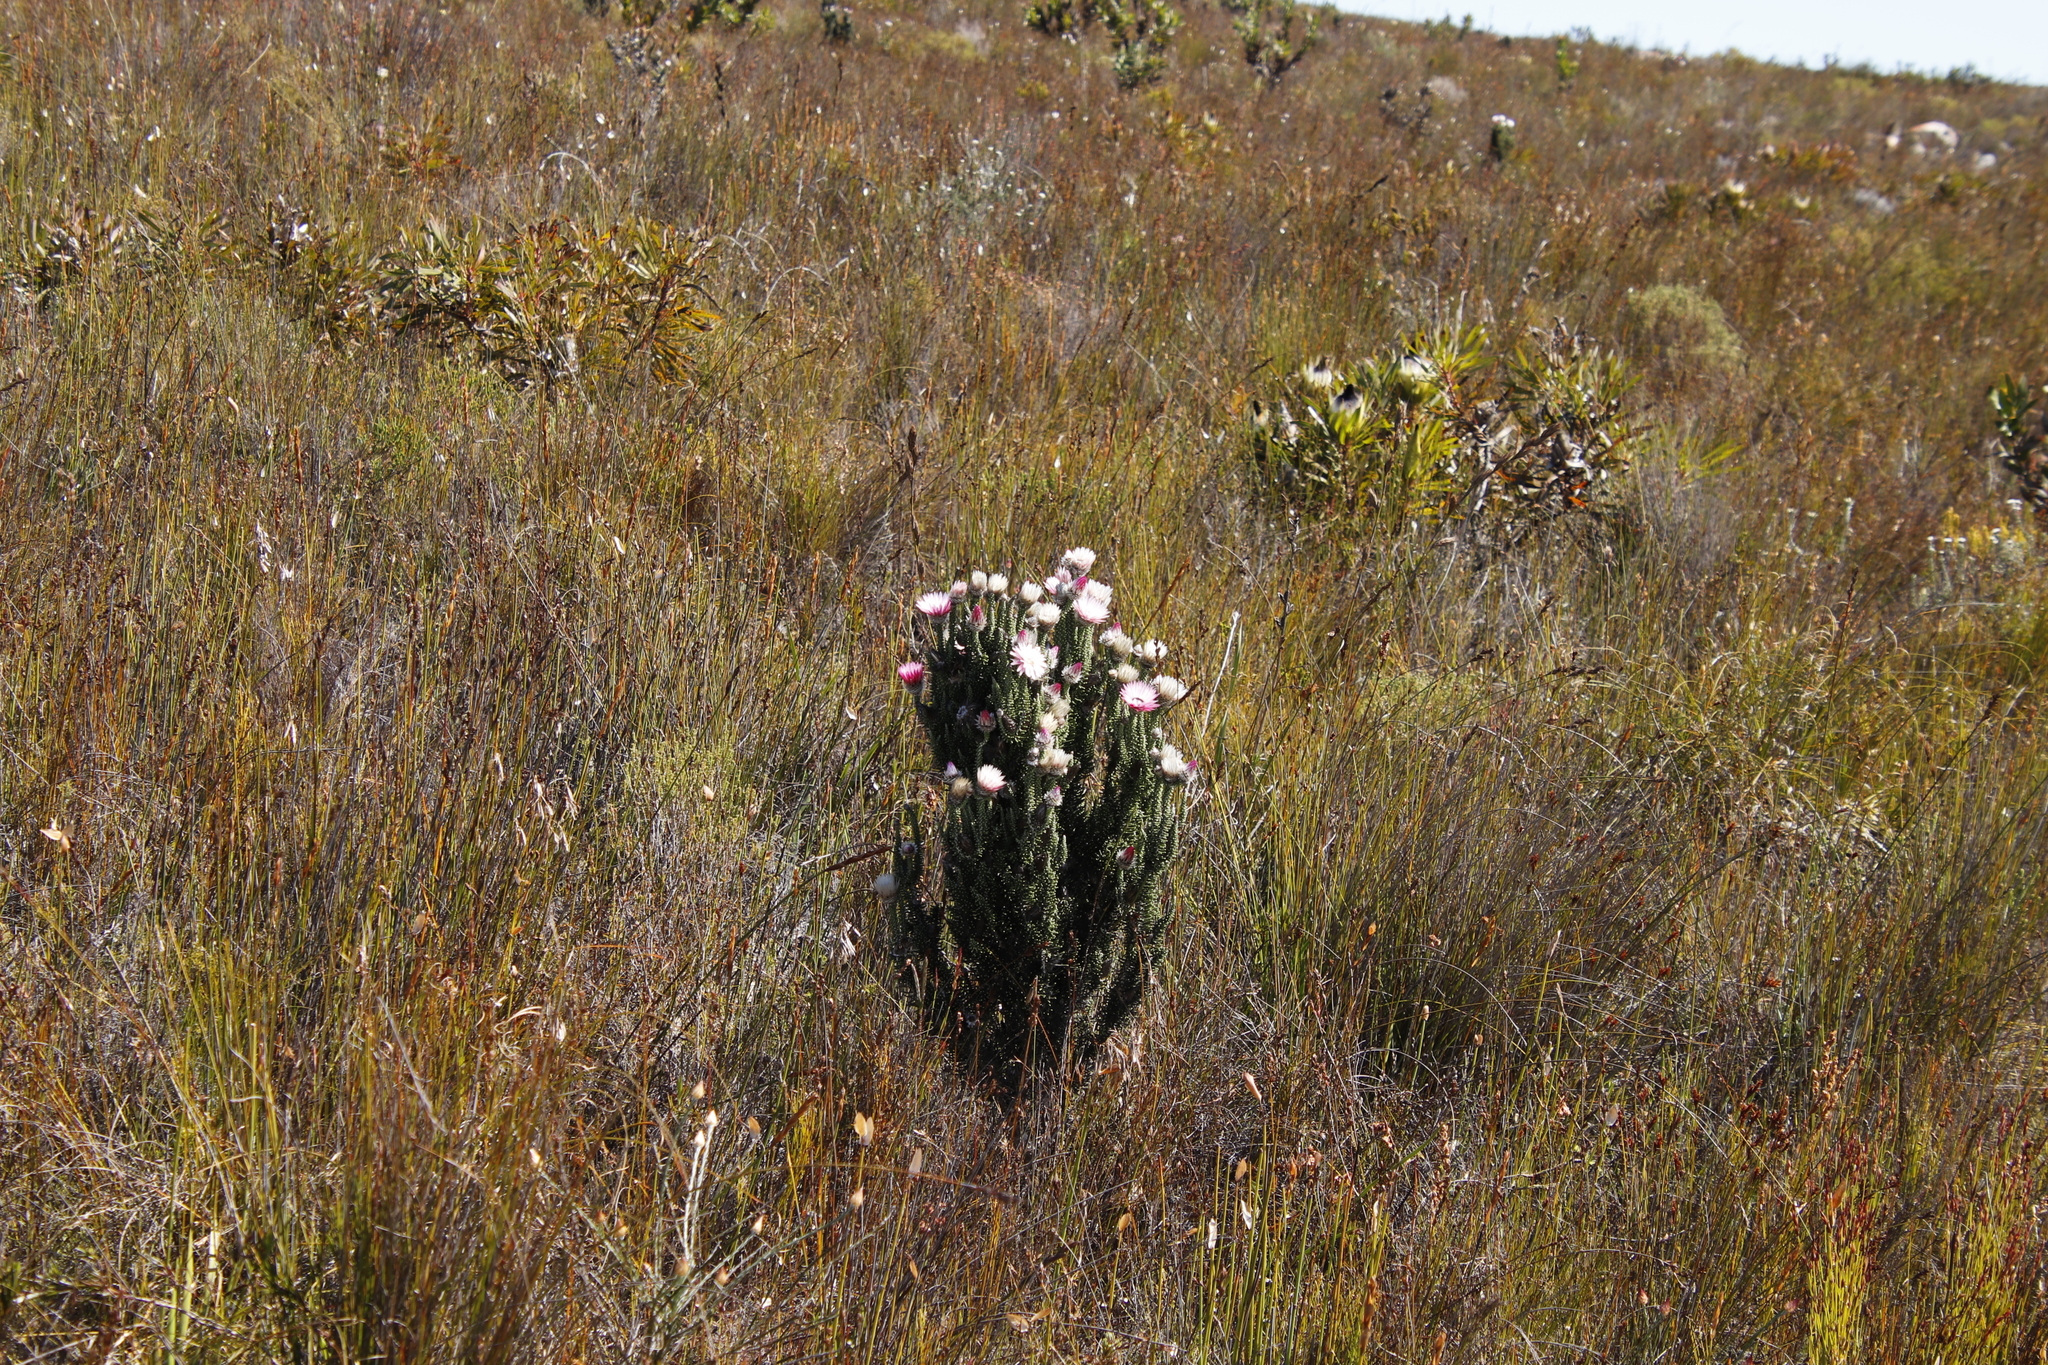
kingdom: Plantae
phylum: Tracheophyta
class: Magnoliopsida
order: Asterales
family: Asteraceae
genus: Phaenocoma
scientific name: Phaenocoma prolifera
